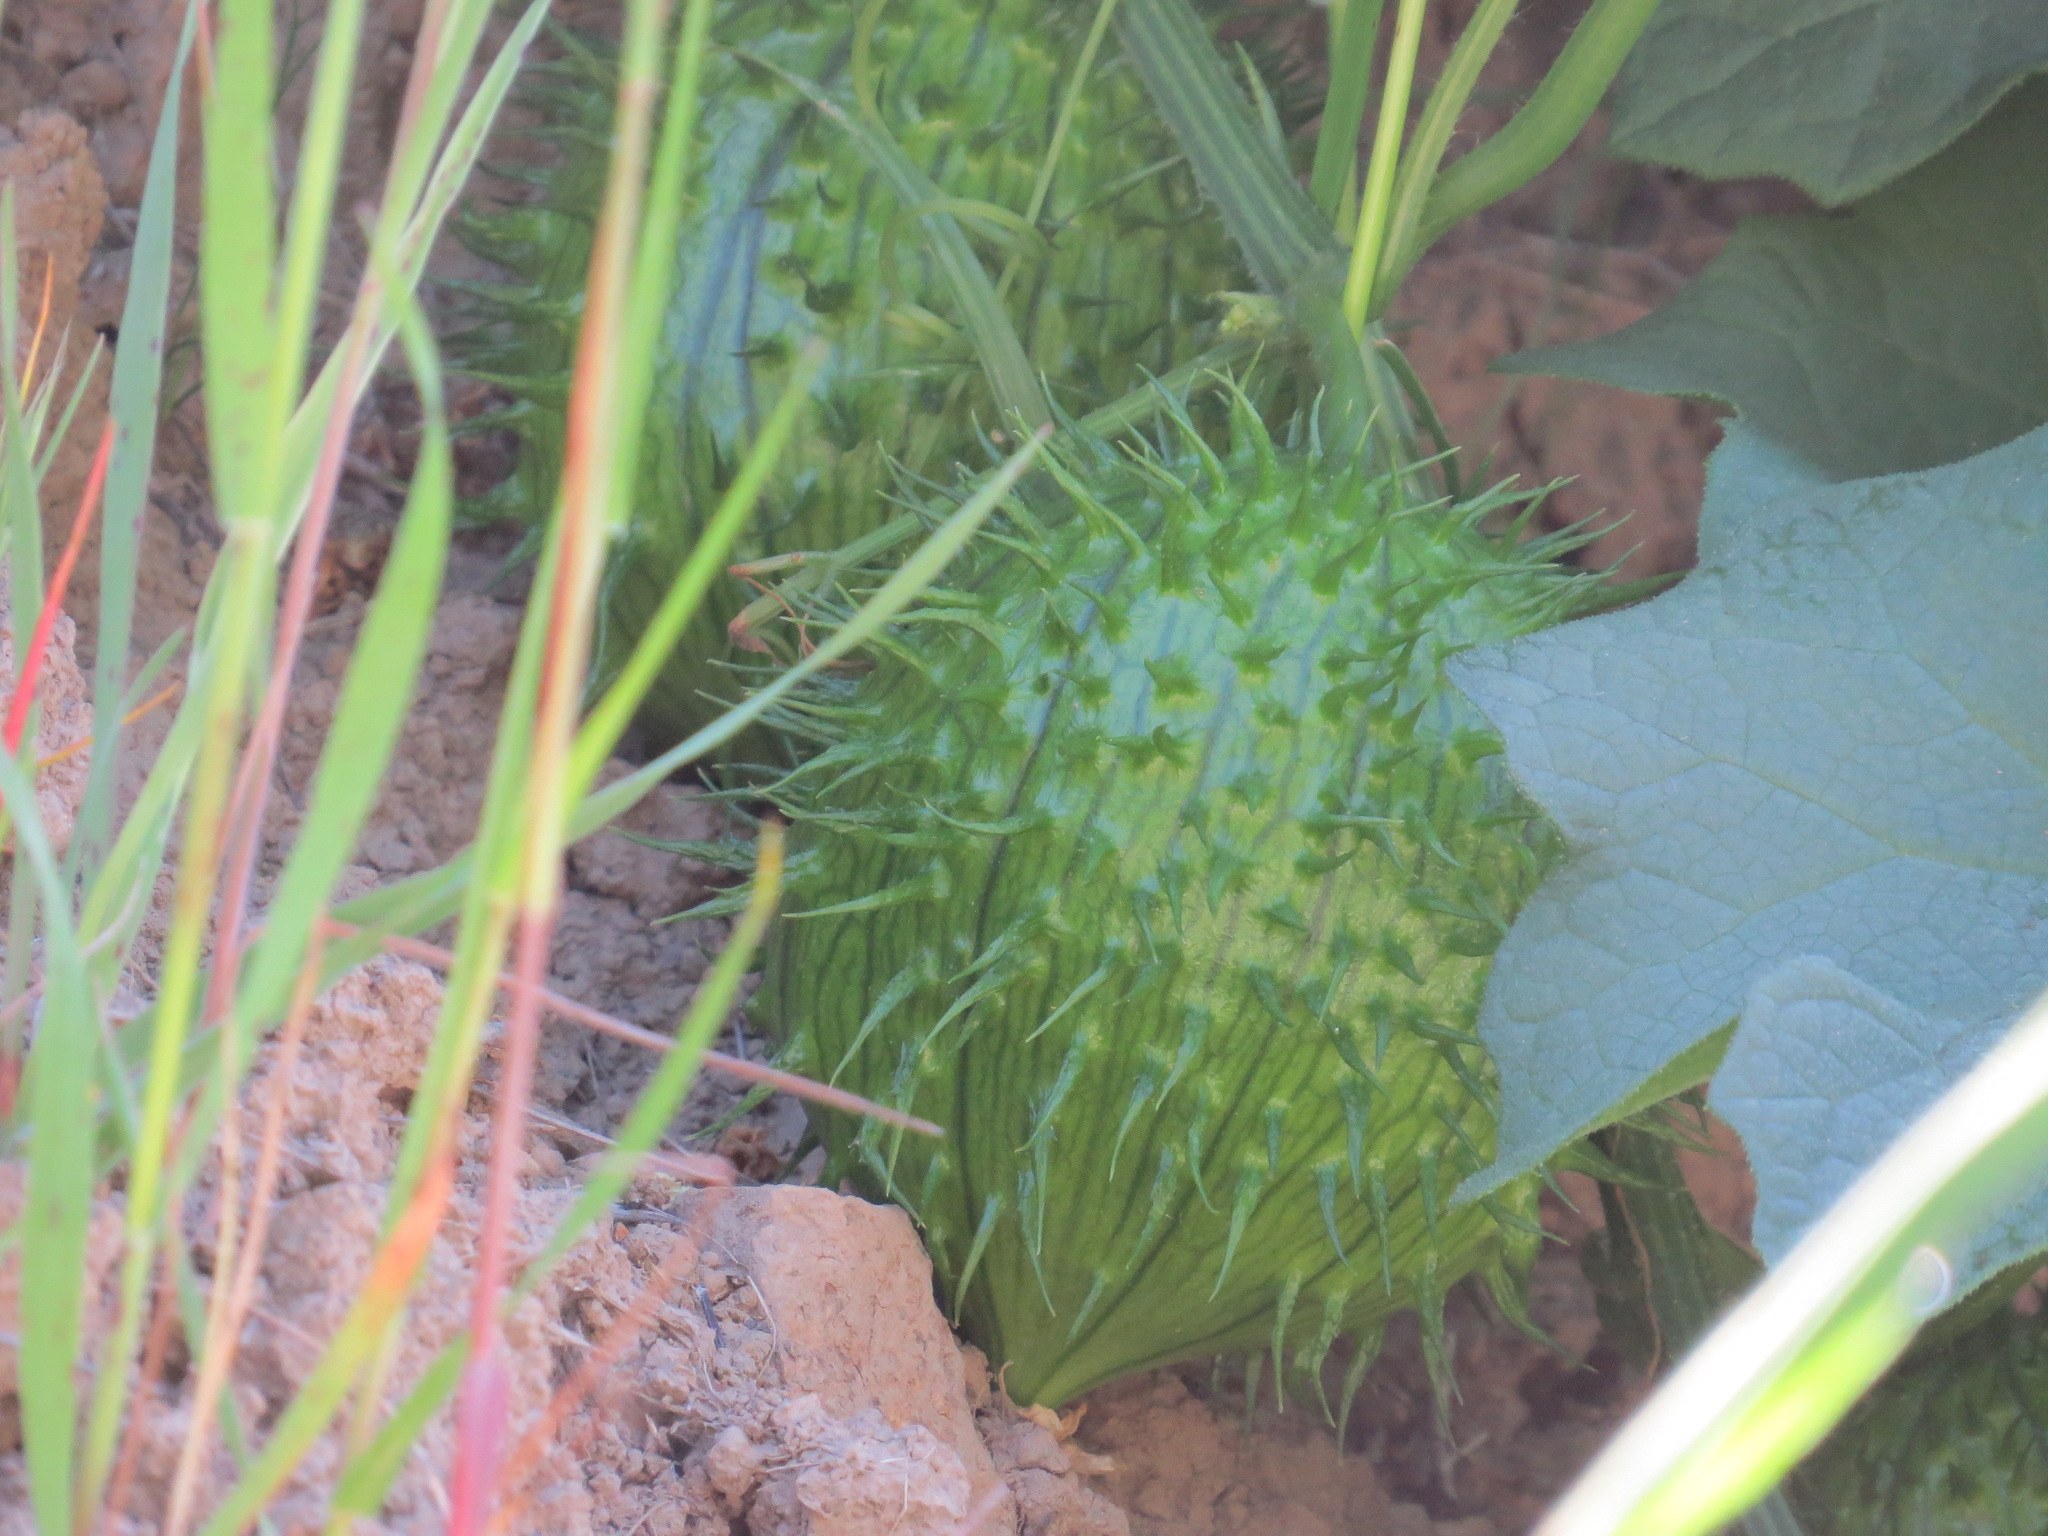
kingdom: Plantae
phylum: Tracheophyta
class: Magnoliopsida
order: Cucurbitales
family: Cucurbitaceae
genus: Marah
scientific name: Marah oregana
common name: Coastal manroot
